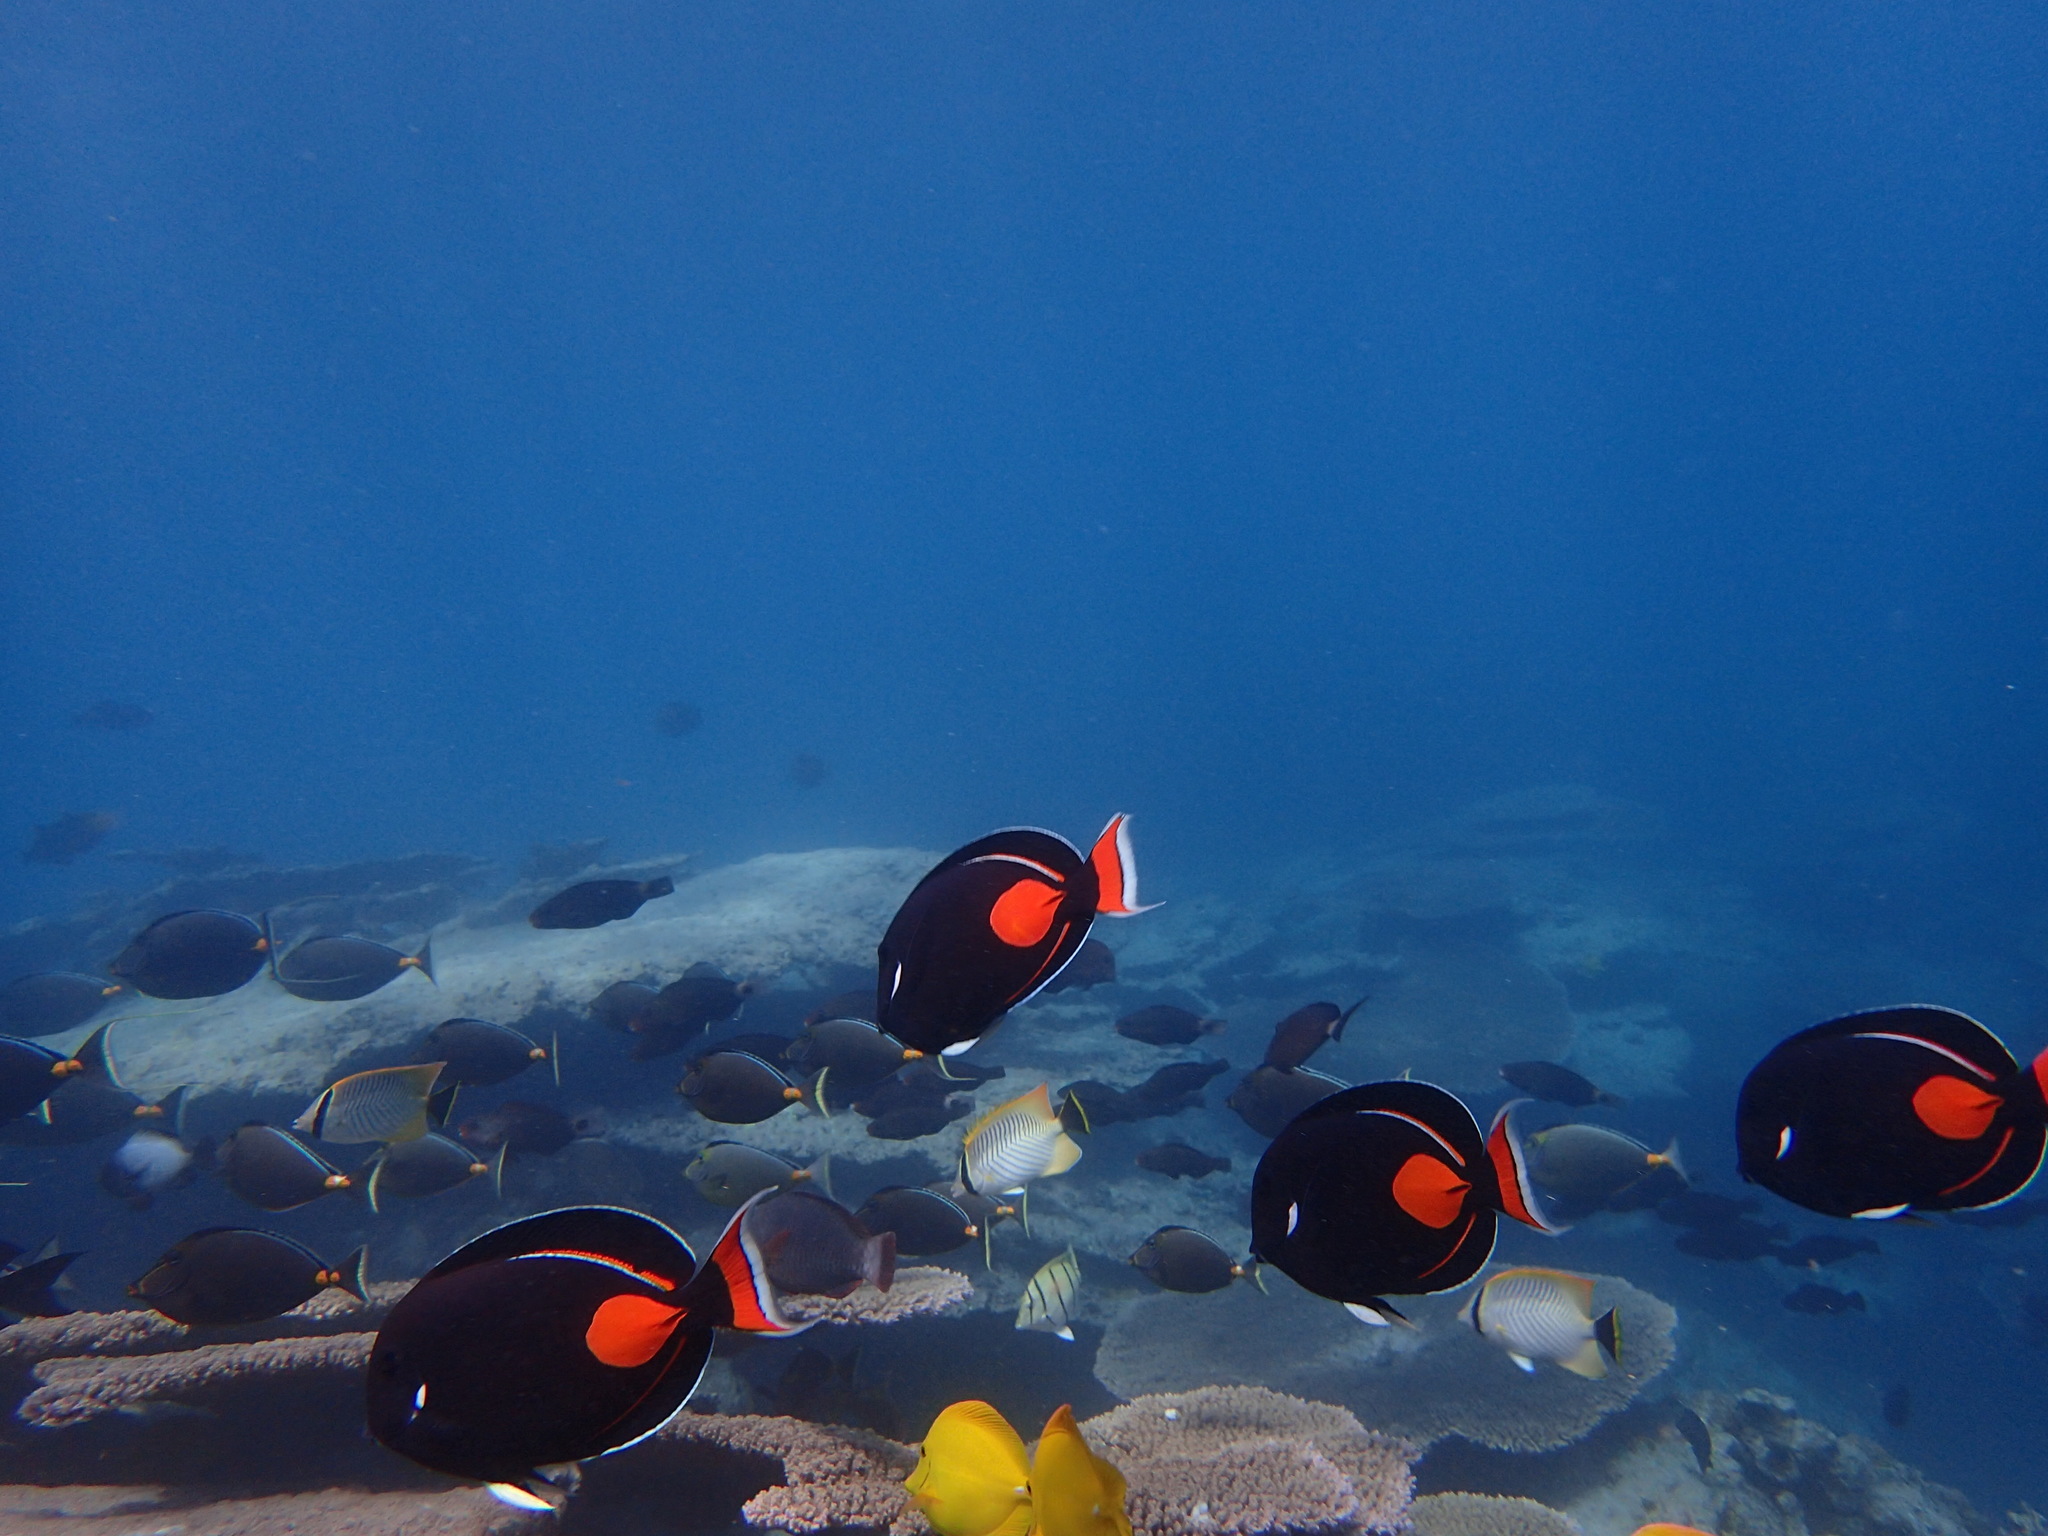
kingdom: Animalia
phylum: Chordata
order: Perciformes
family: Acanthuridae
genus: Acanthurus
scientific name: Acanthurus achilles
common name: Achilles tang
